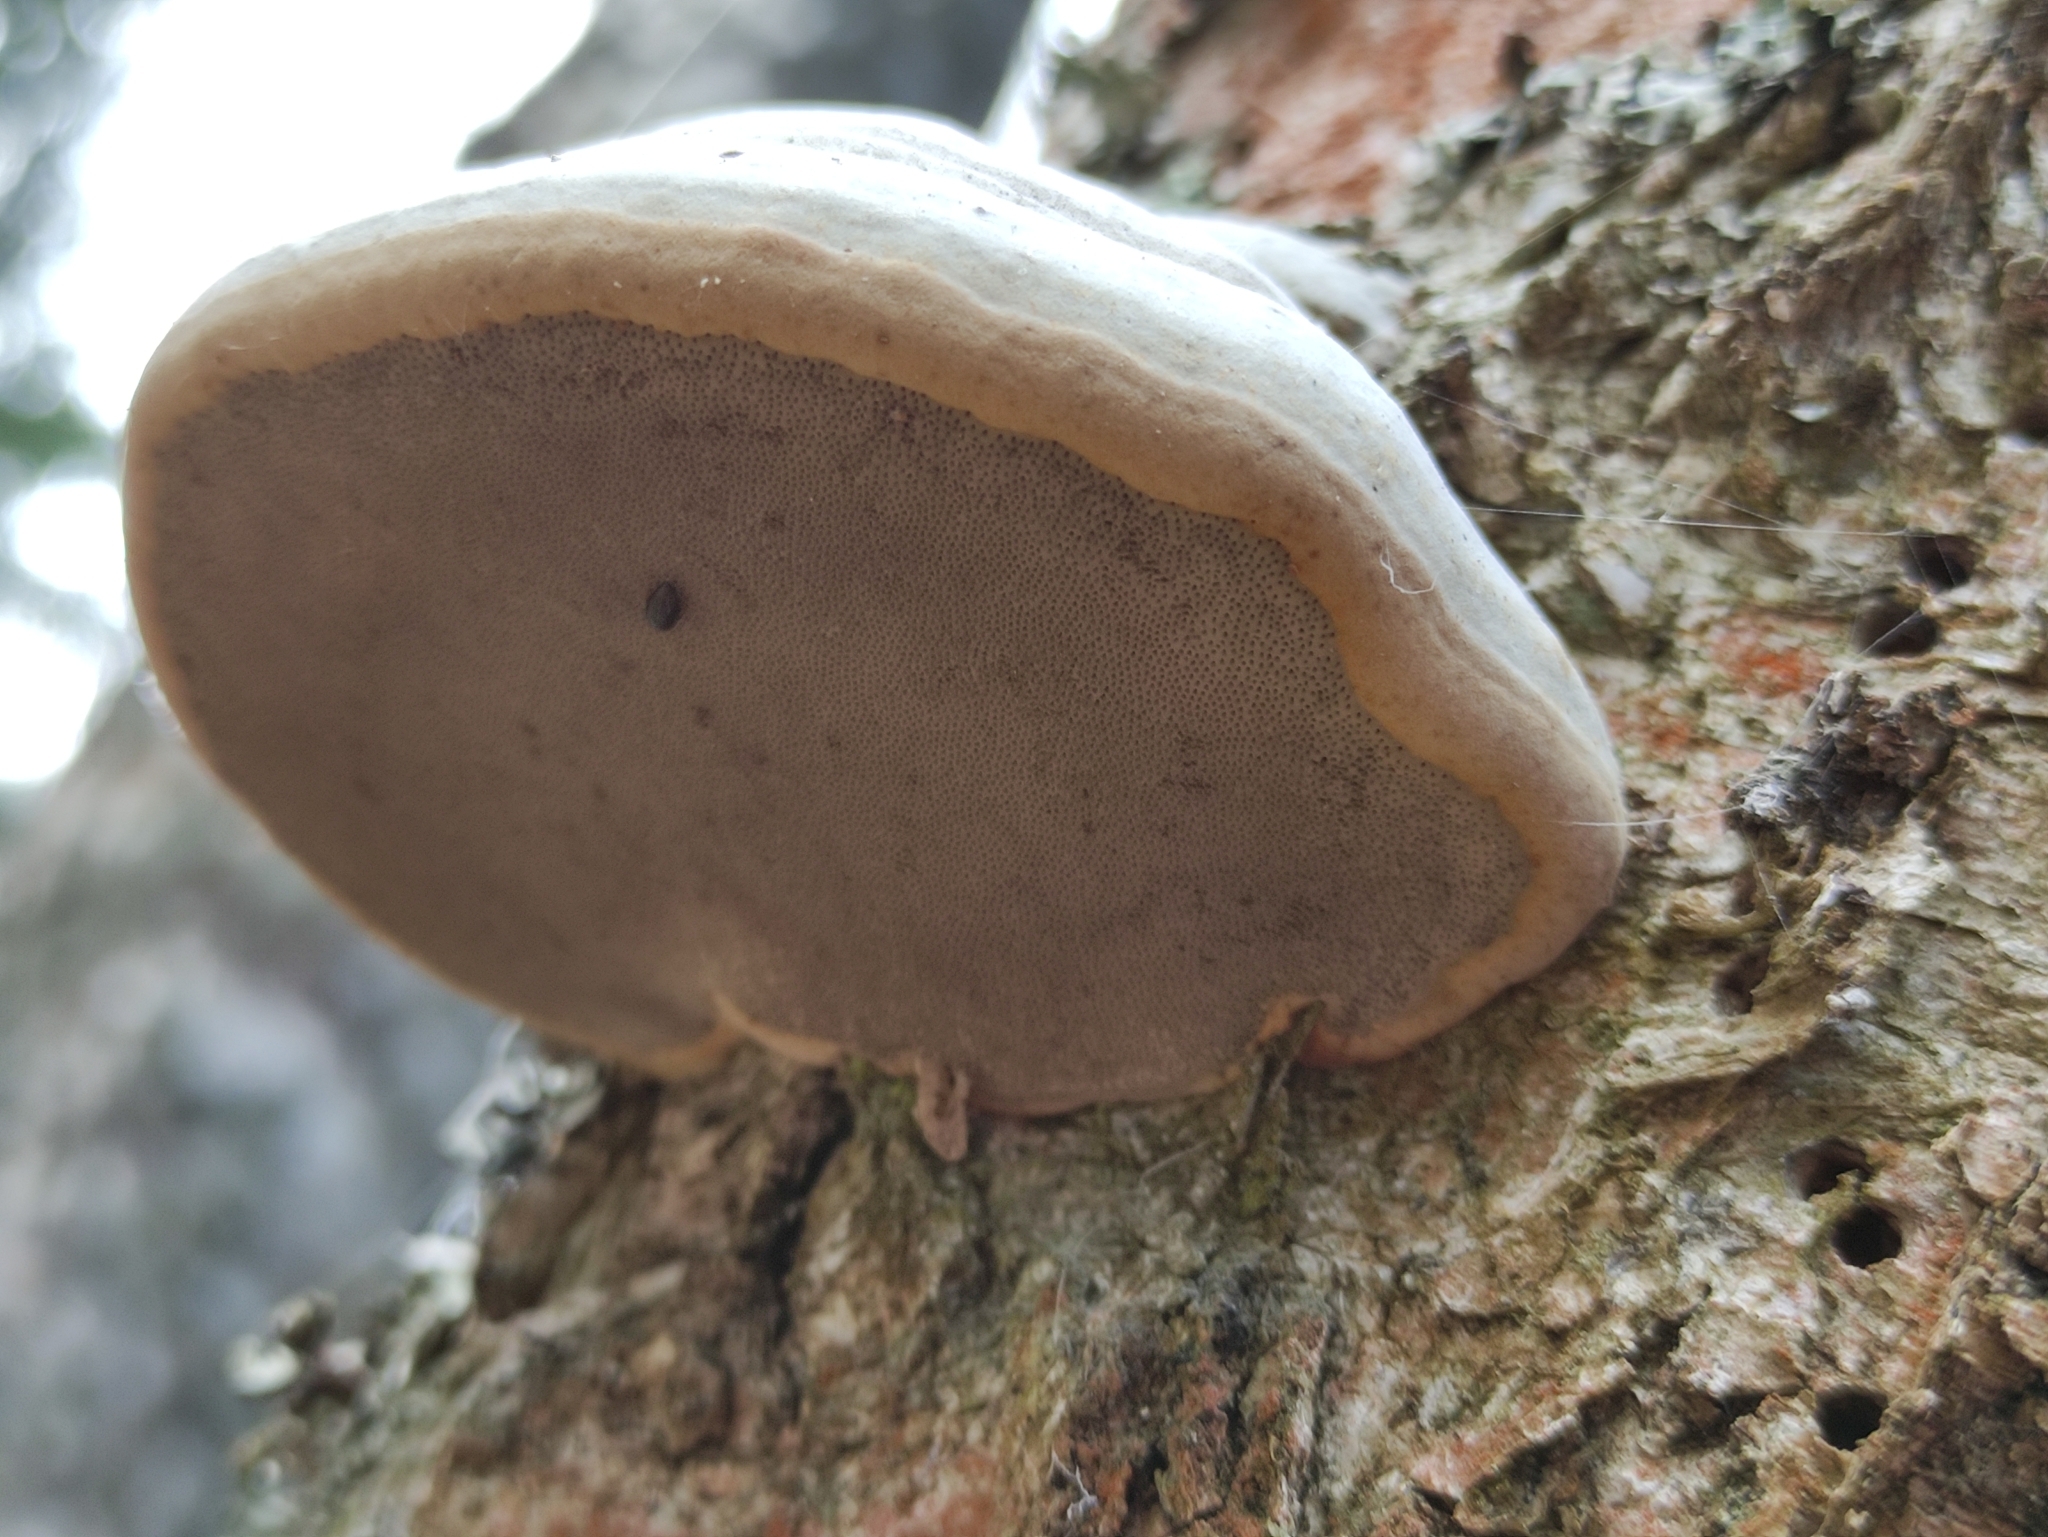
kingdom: Fungi
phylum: Basidiomycota
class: Agaricomycetes
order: Polyporales
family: Polyporaceae
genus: Fomes
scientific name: Fomes fomentarius
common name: Hoof fungus
